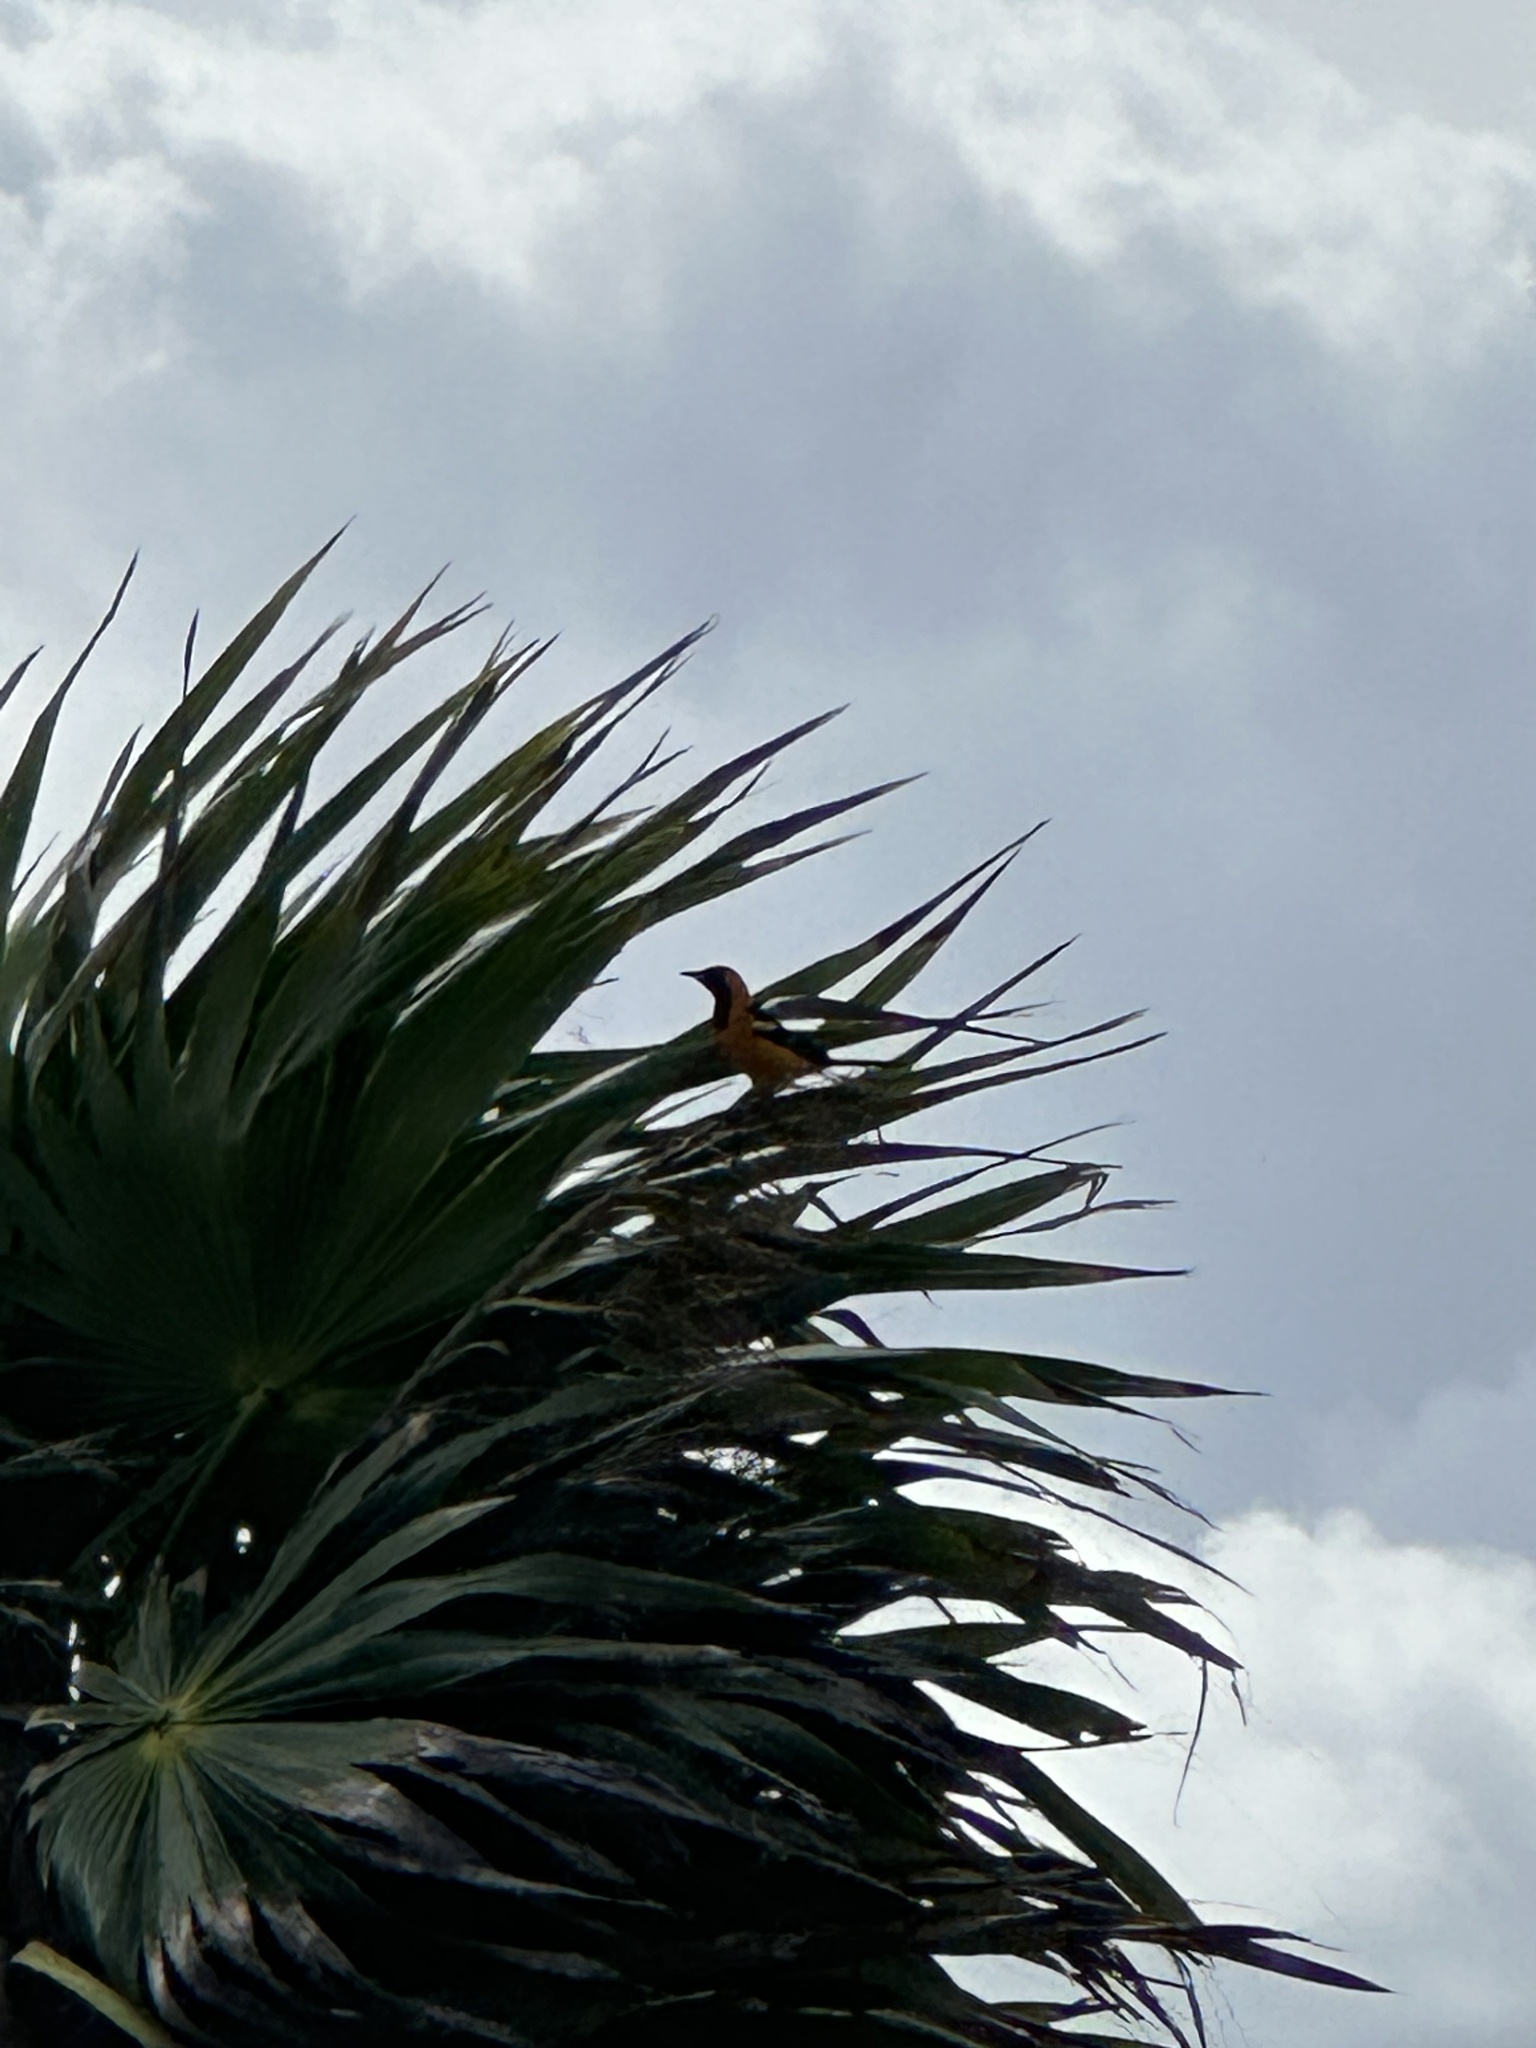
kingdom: Animalia
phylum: Chordata
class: Aves
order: Passeriformes
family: Icteridae
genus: Icterus
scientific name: Icterus cucullatus
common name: Hooded oriole
